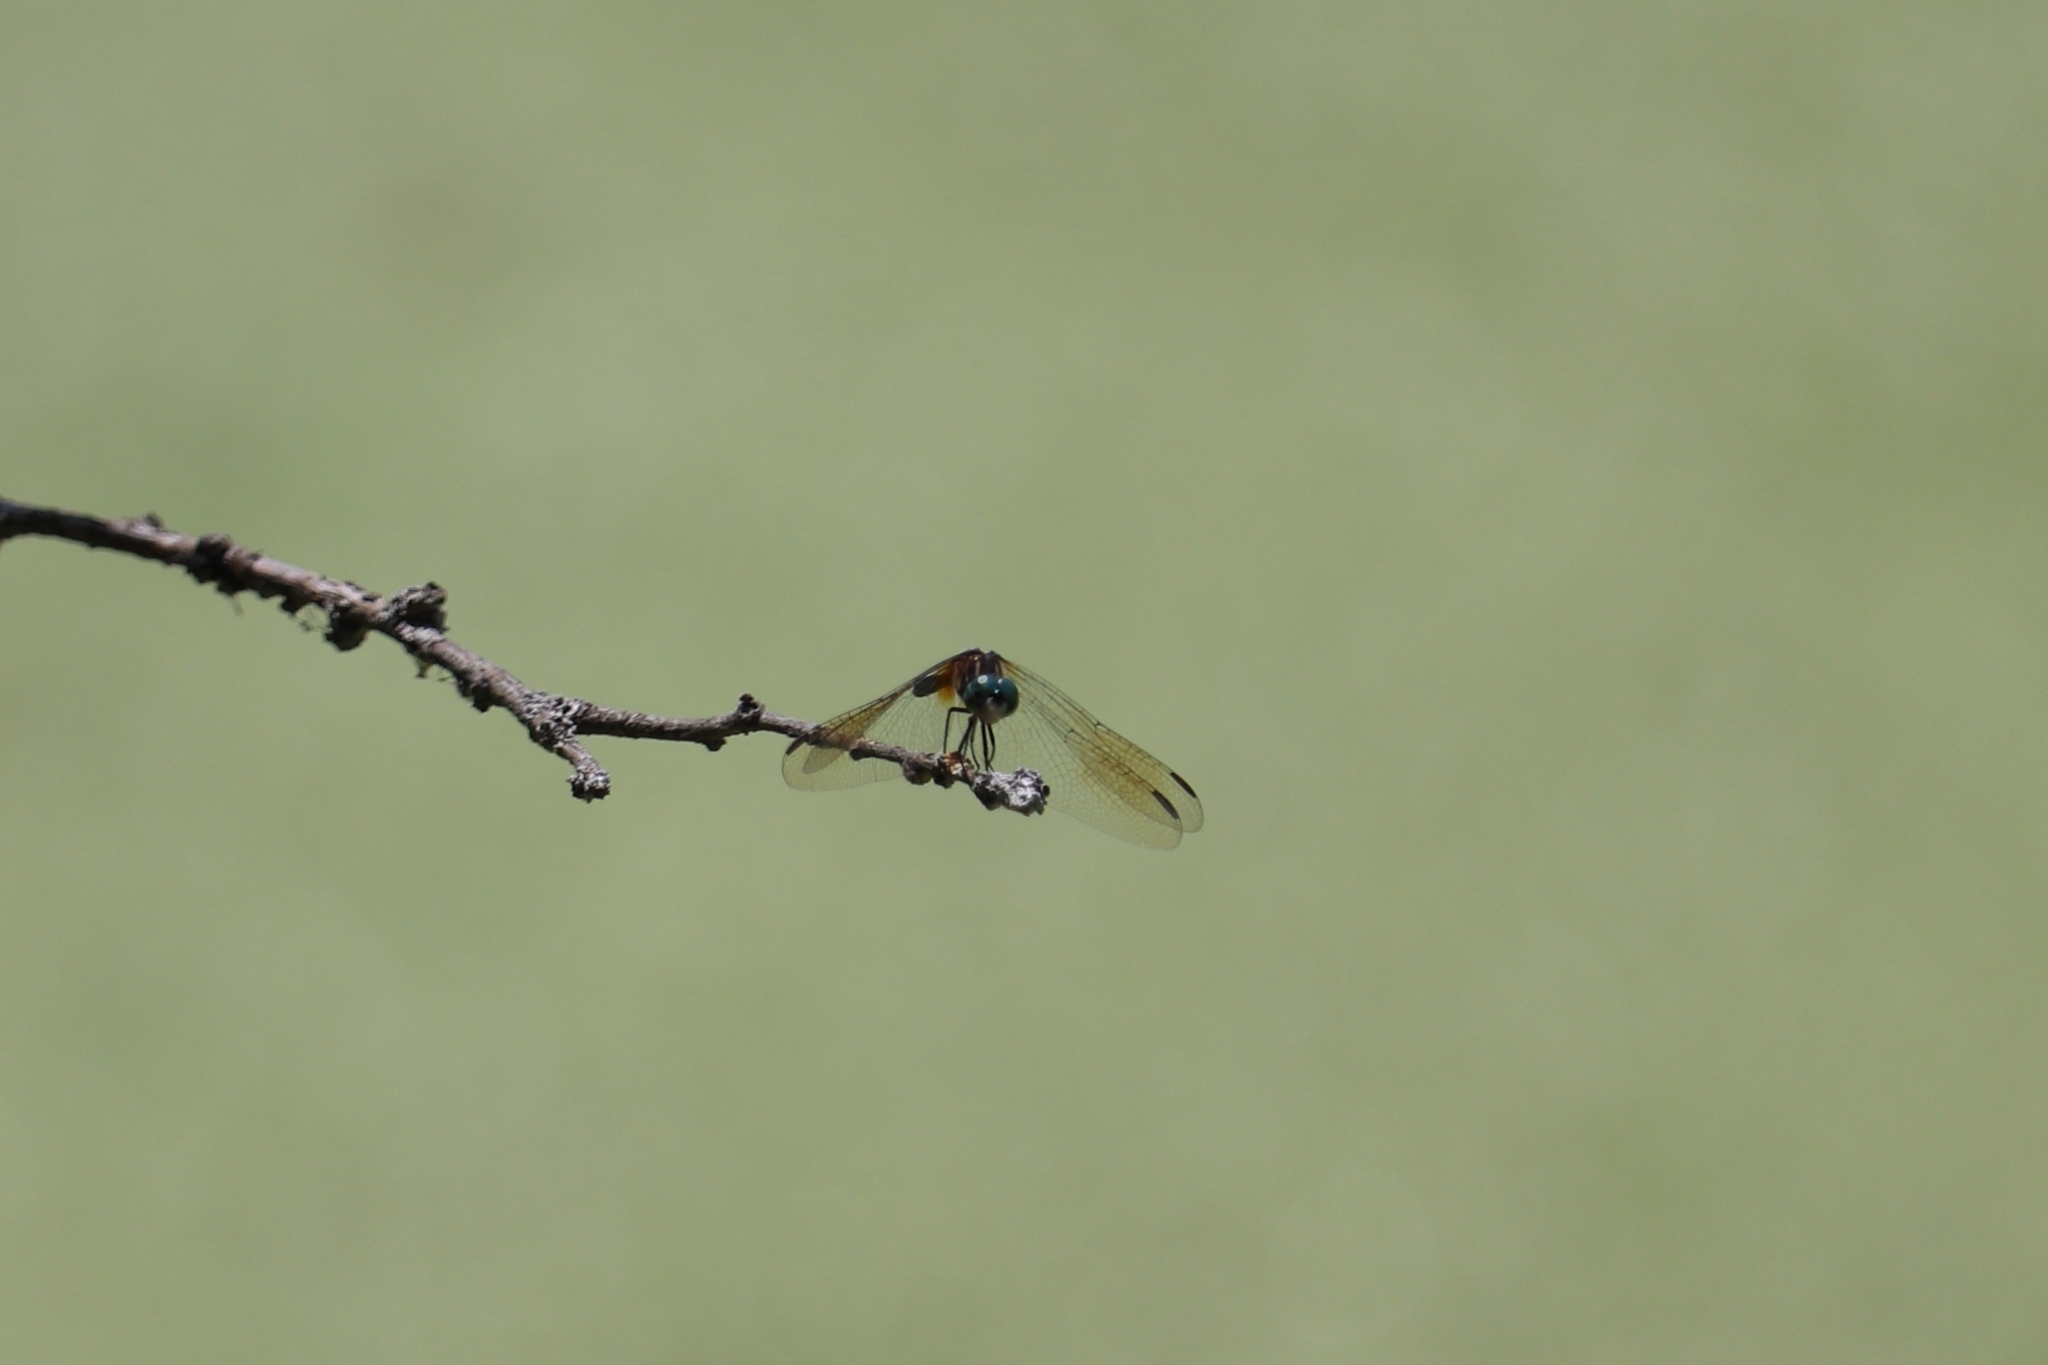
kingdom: Animalia
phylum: Arthropoda
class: Insecta
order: Odonata
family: Libellulidae
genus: Pachydiplax
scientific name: Pachydiplax longipennis
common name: Blue dasher
